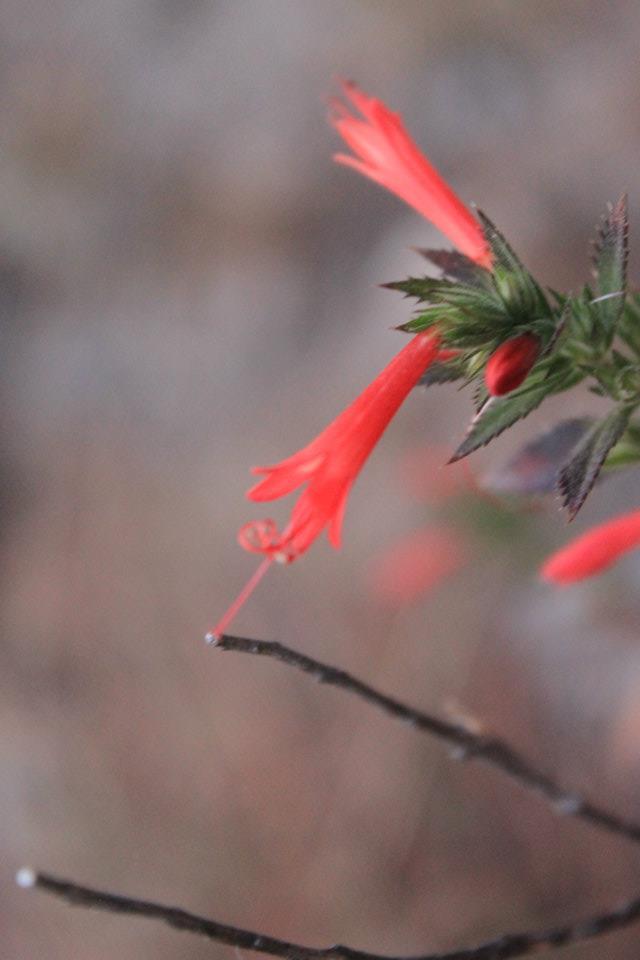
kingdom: Plantae
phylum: Tracheophyta
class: Magnoliopsida
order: Ericales
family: Polemoniaceae
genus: Loeselia
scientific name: Loeselia mexicana
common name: Mexican false calico
